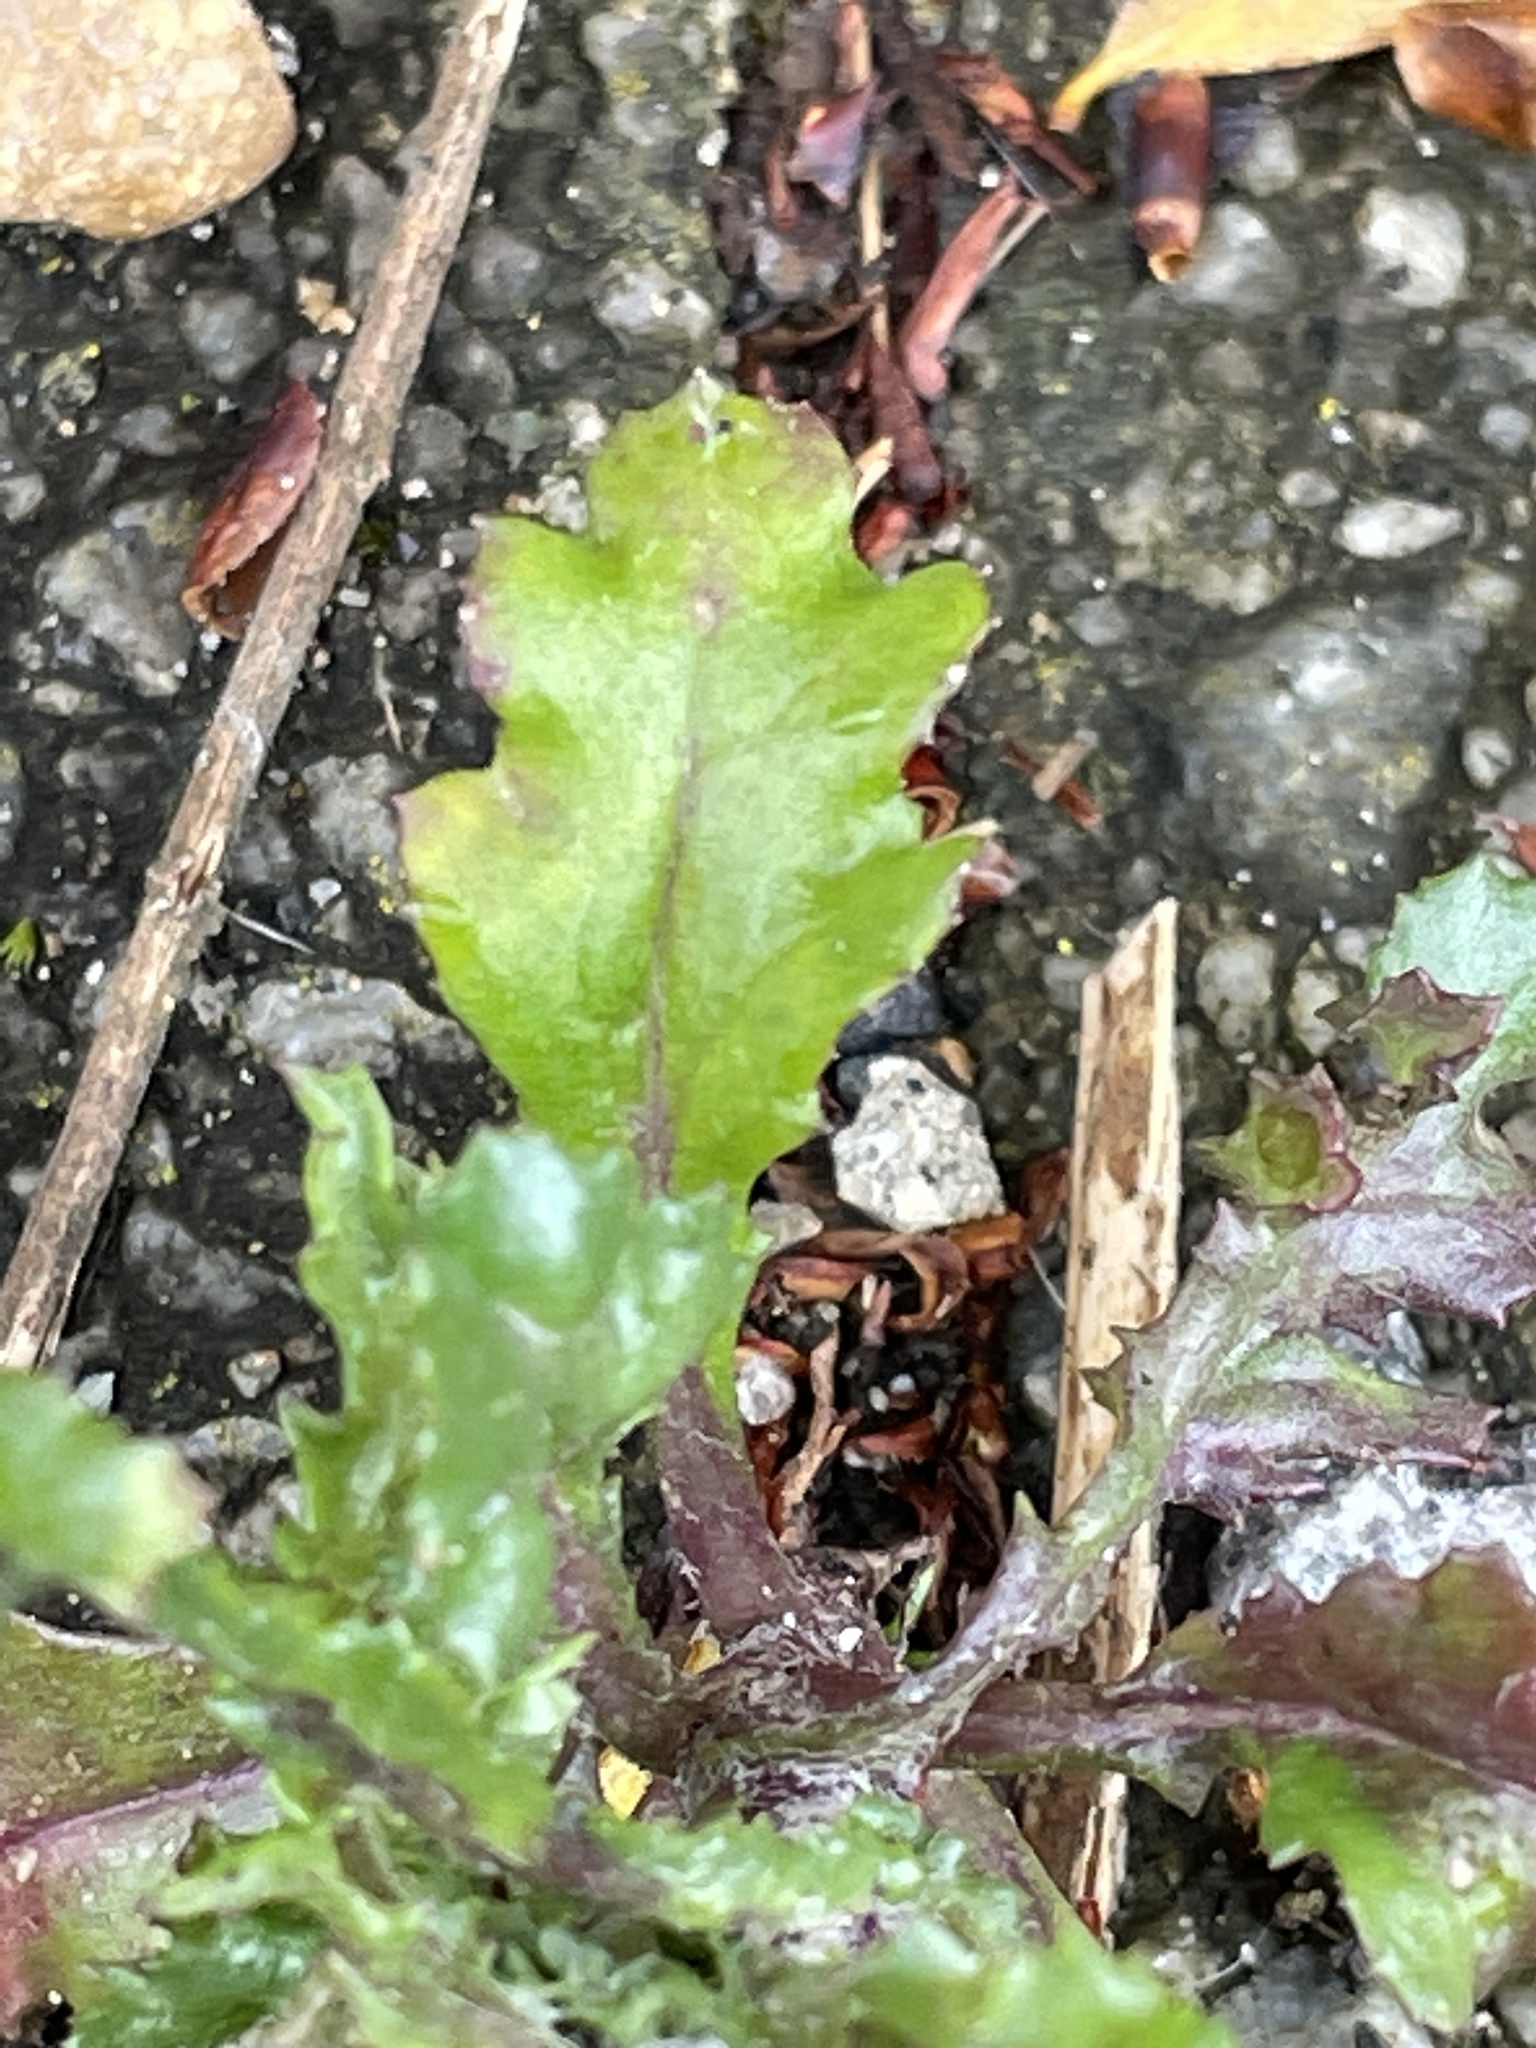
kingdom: Plantae
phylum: Tracheophyta
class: Magnoliopsida
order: Asterales
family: Asteraceae
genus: Senecio
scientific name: Senecio vulgaris
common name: Old-man-in-the-spring
